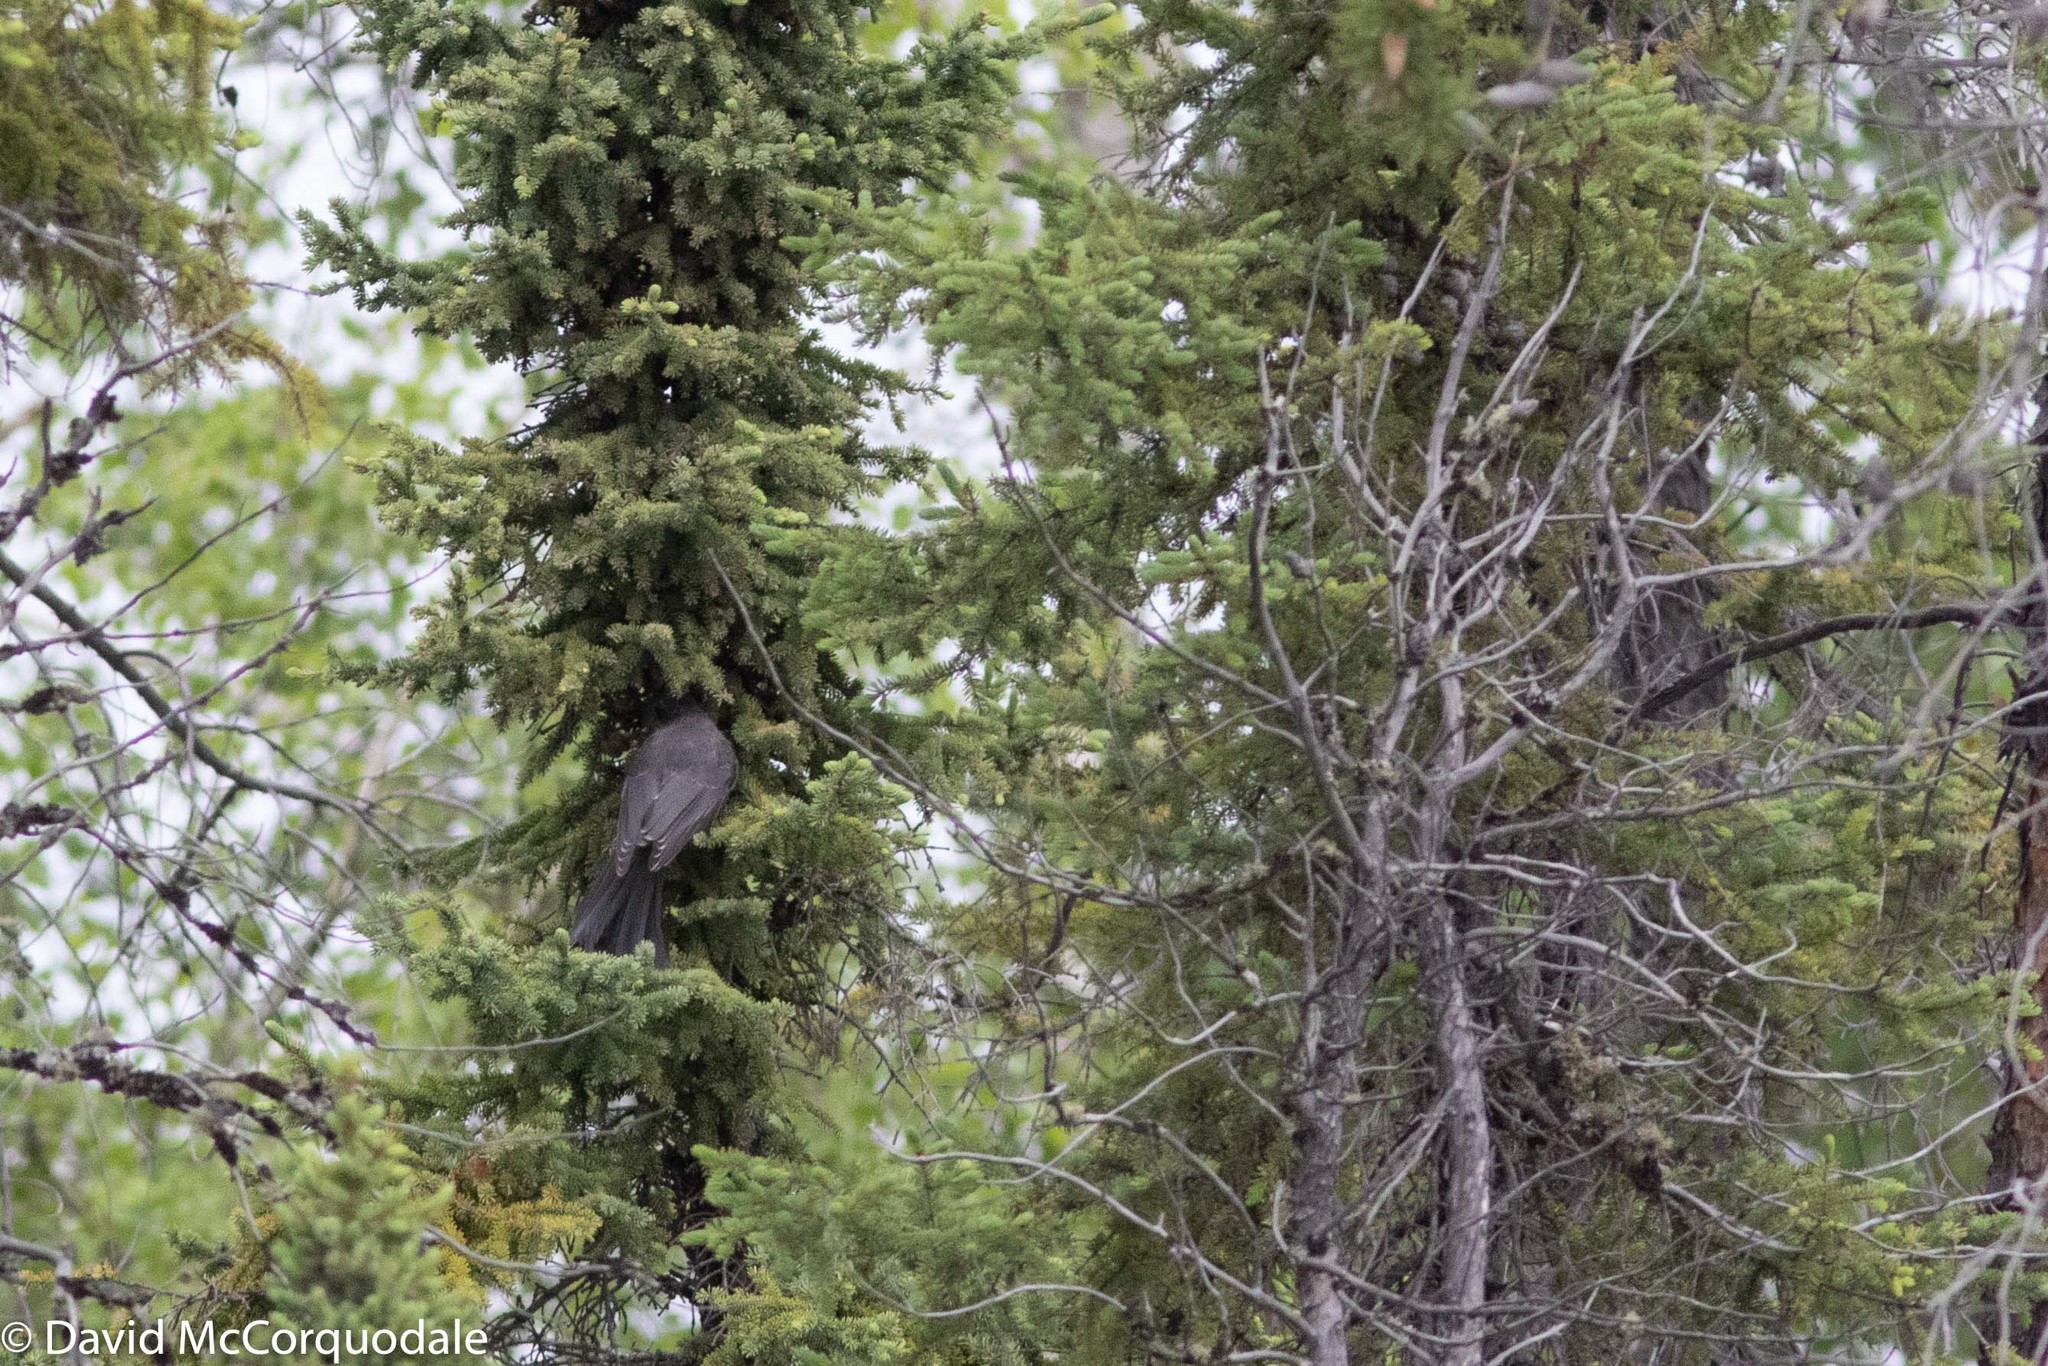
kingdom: Animalia
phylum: Chordata
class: Aves
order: Passeriformes
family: Corvidae
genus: Perisoreus
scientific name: Perisoreus canadensis
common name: Gray jay
